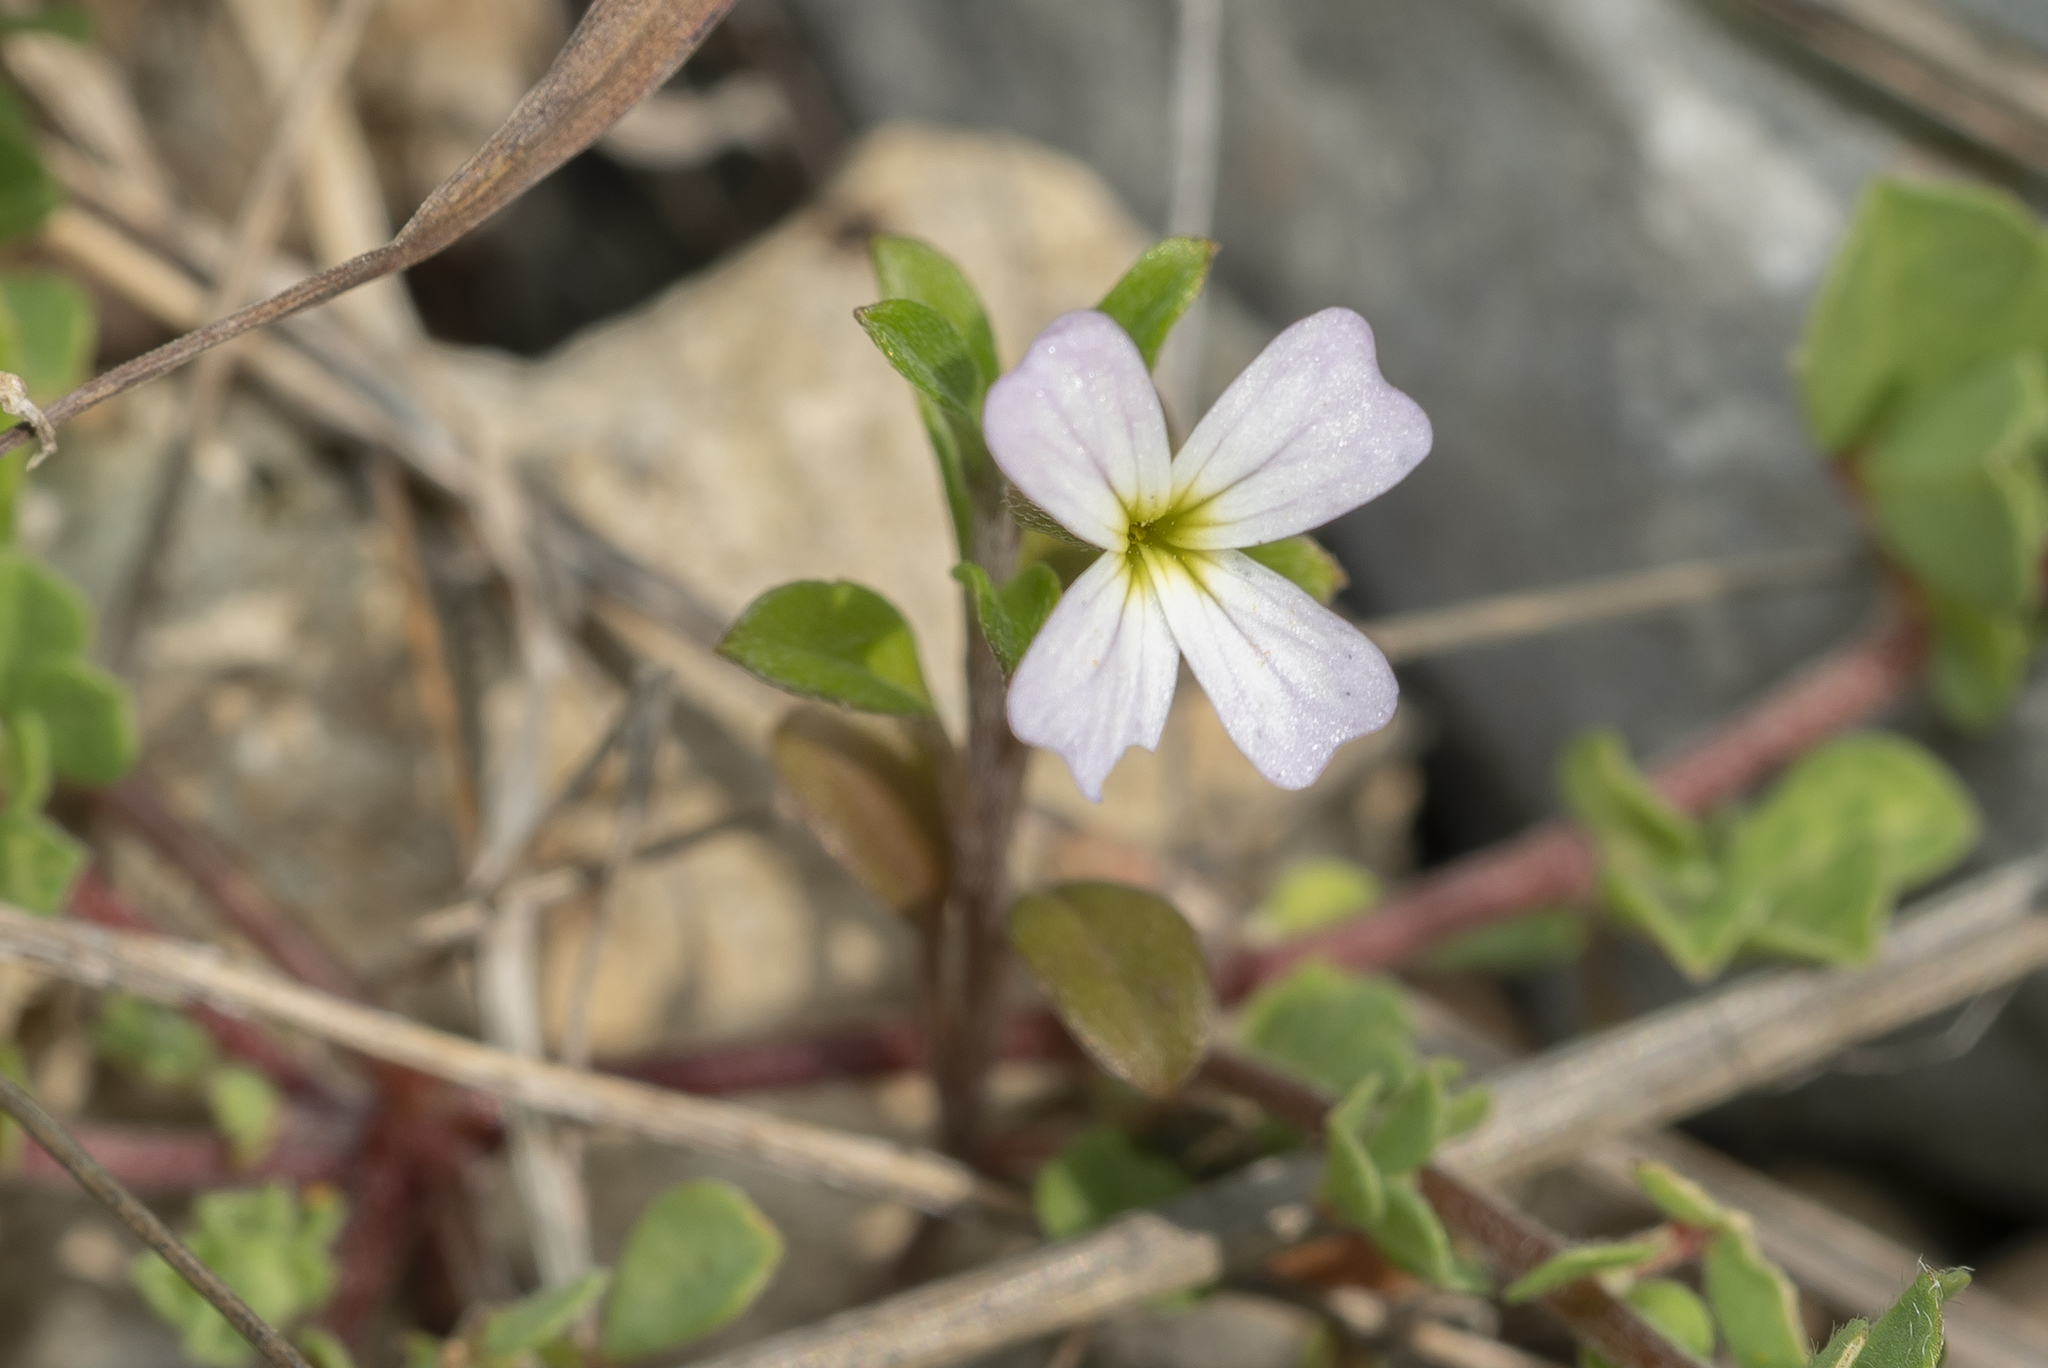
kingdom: Plantae
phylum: Tracheophyta
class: Magnoliopsida
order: Brassicales
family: Brassicaceae
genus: Malcolmia
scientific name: Malcolmia
